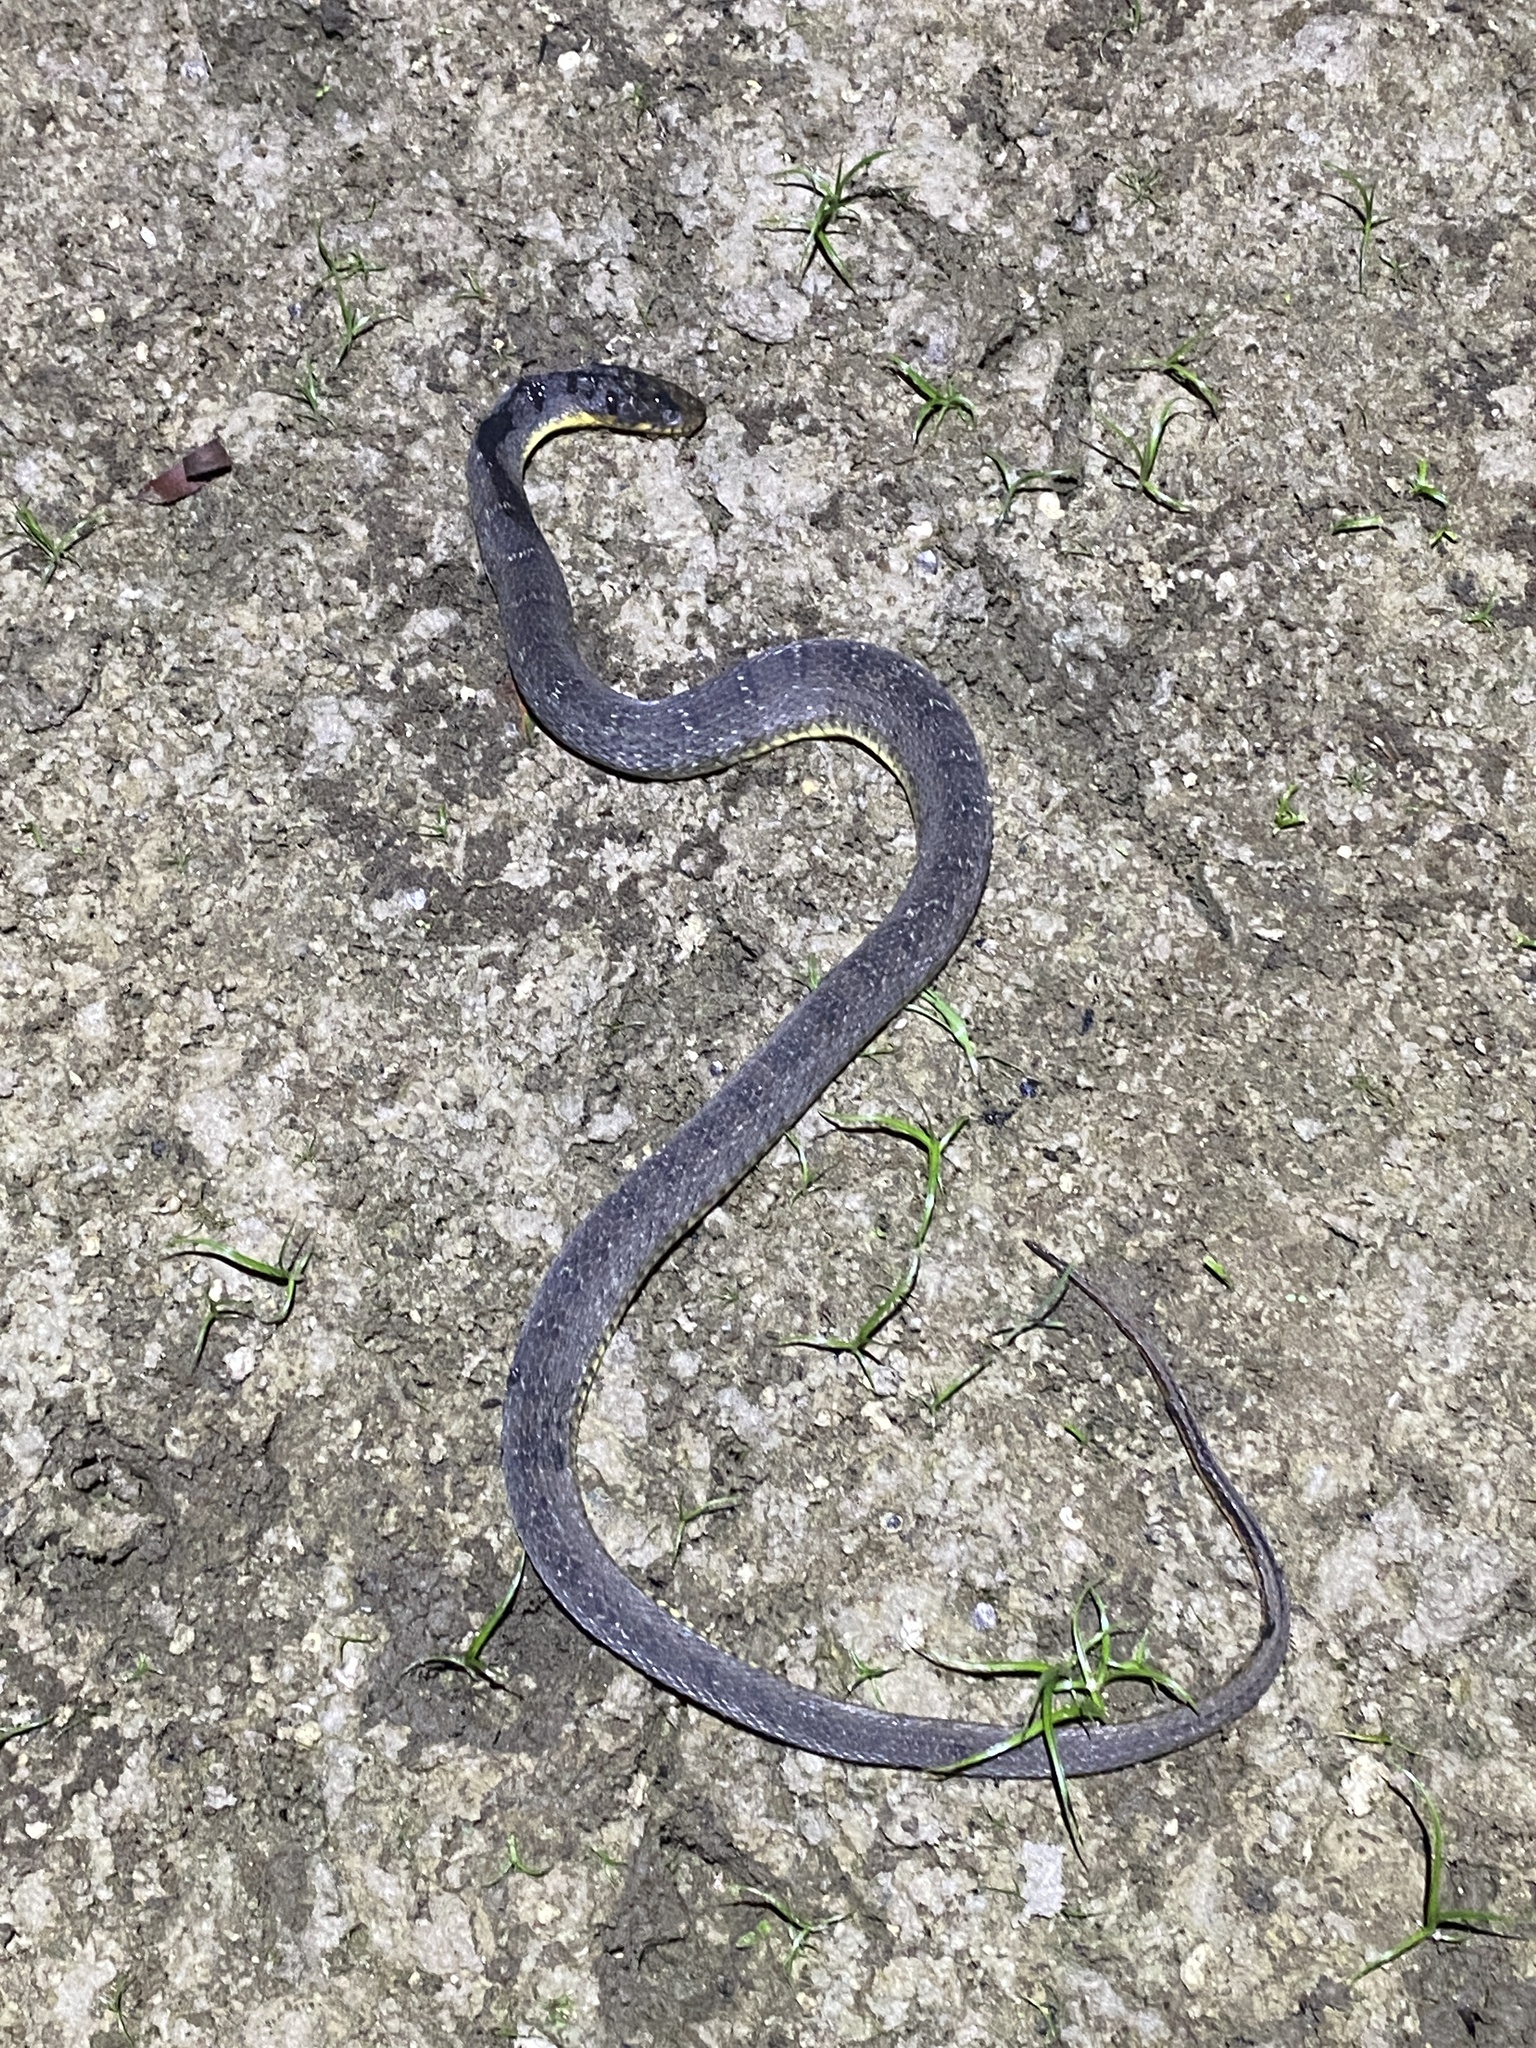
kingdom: Animalia
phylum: Chordata
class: Squamata
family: Colubridae
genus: Nerodia
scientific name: Nerodia erythrogaster
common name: Plainbelly water snake
